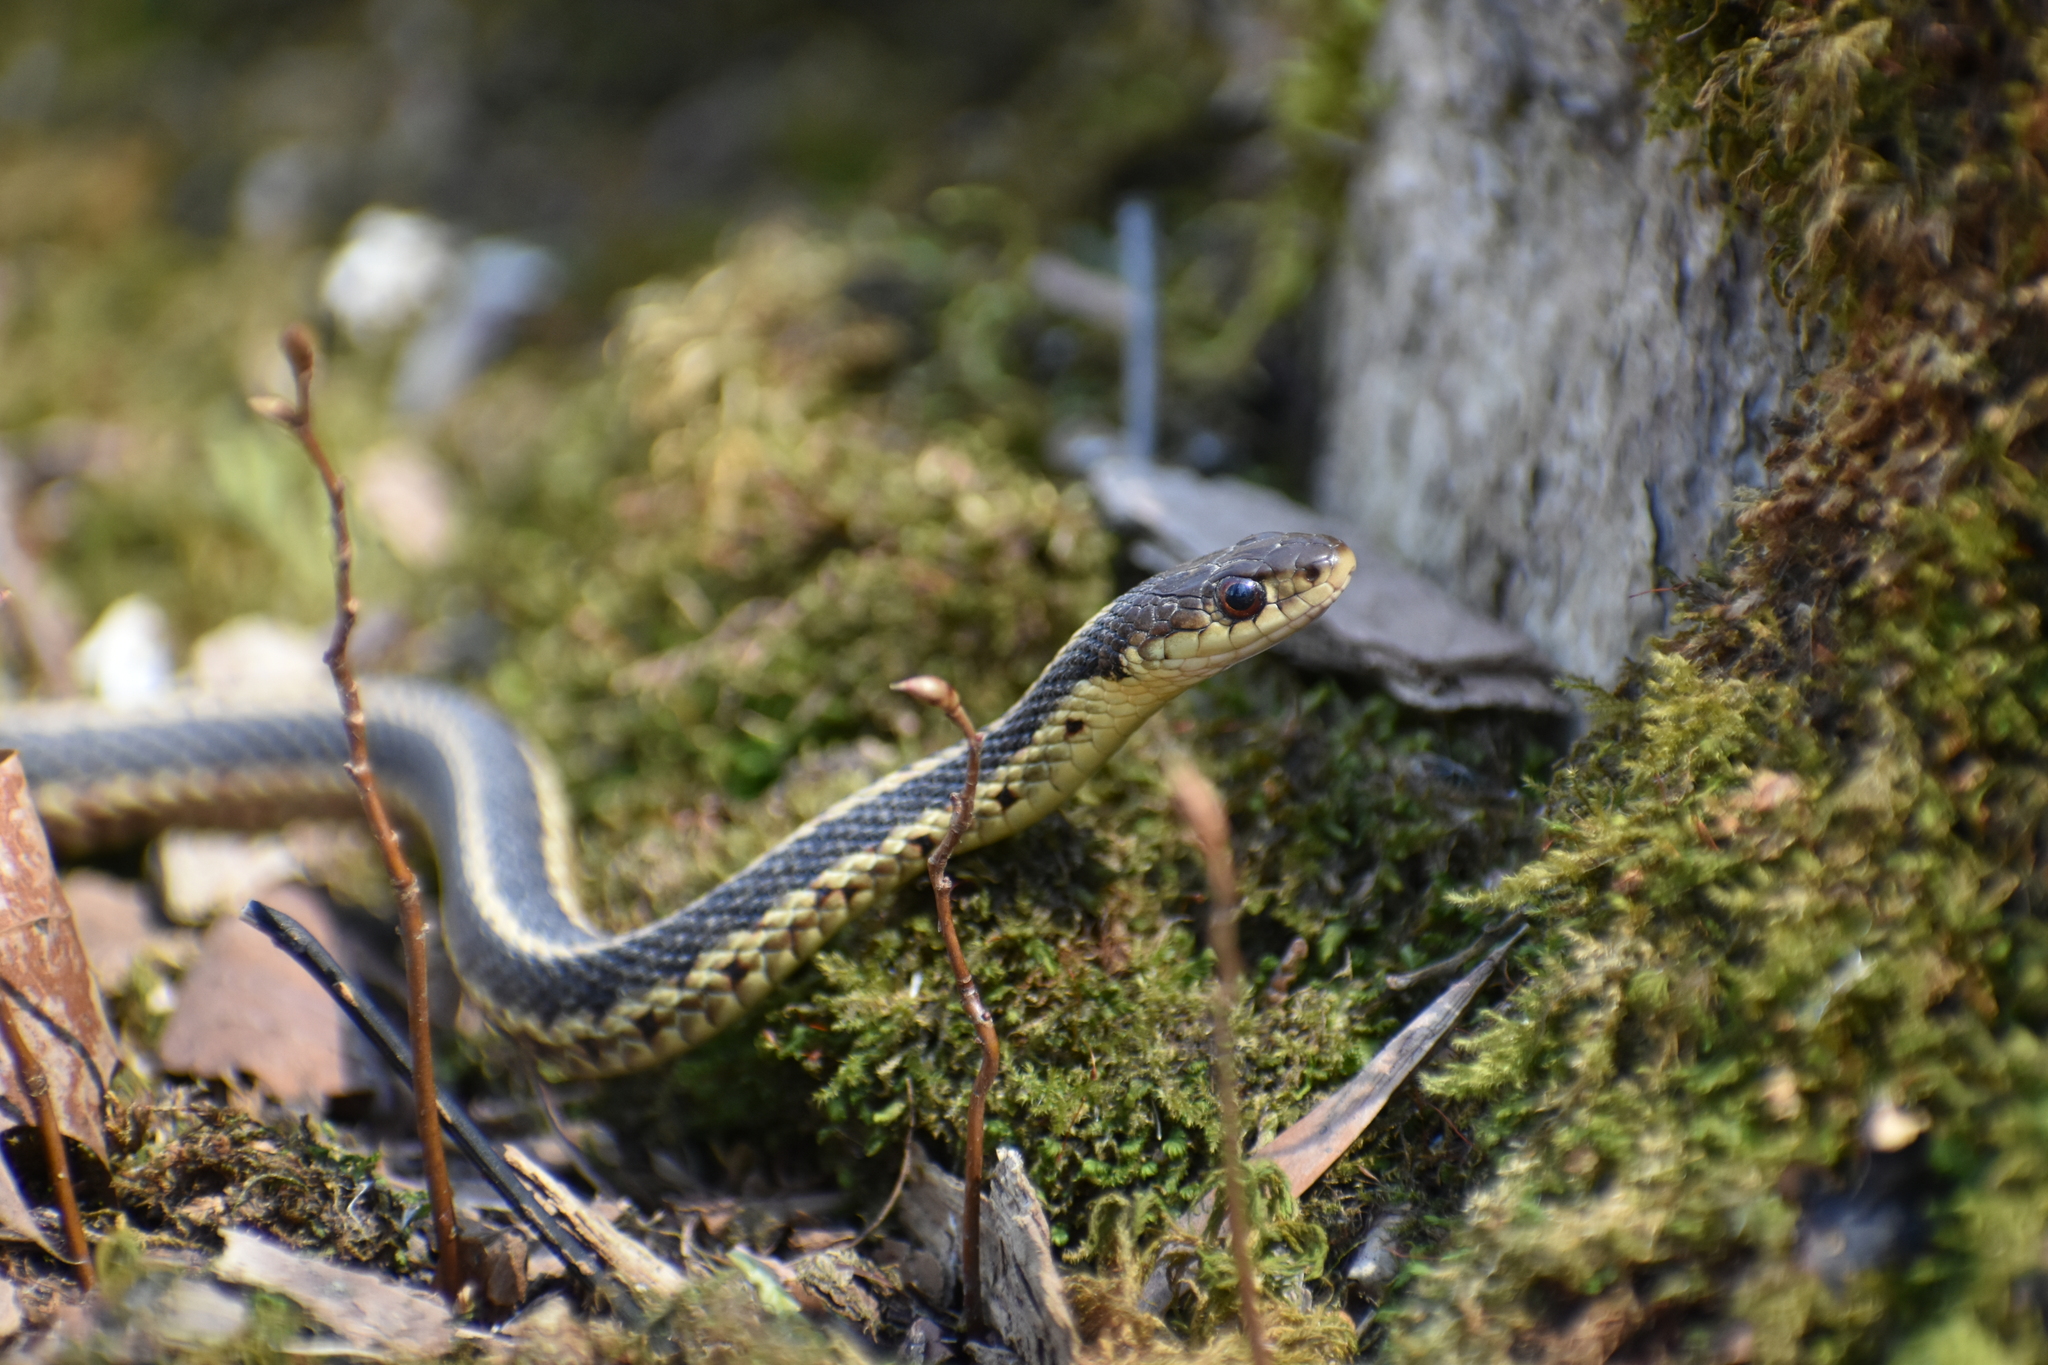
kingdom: Animalia
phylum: Chordata
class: Squamata
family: Colubridae
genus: Thamnophis
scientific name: Thamnophis sirtalis
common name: Common garter snake
